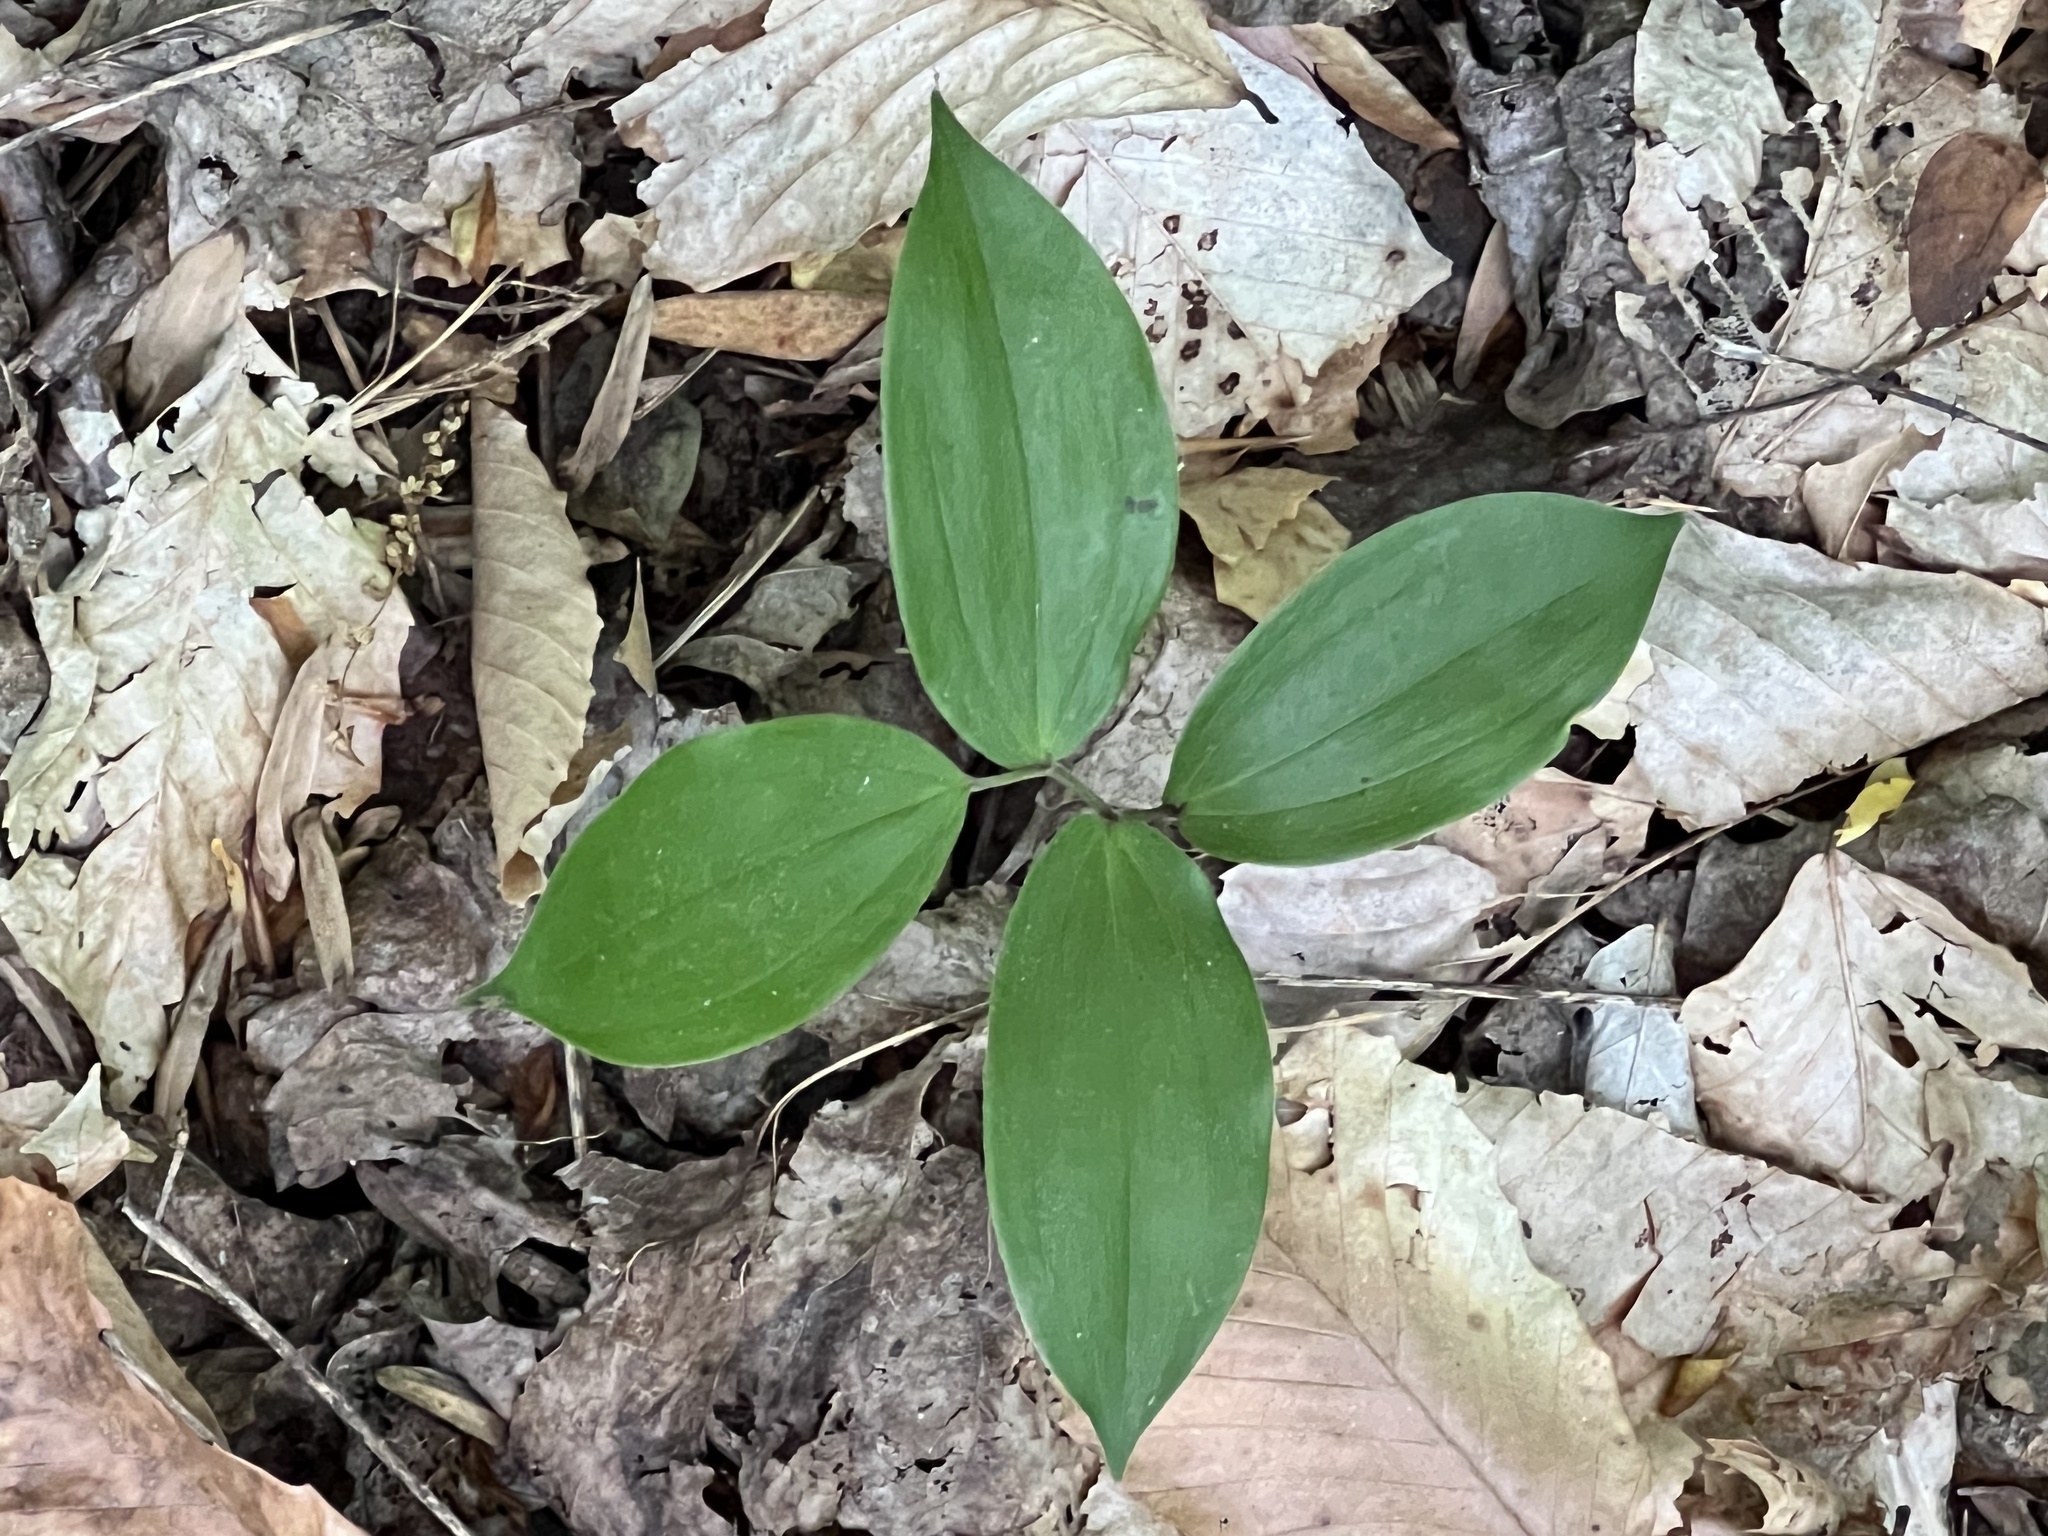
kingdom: Plantae
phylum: Tracheophyta
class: Liliopsida
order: Asparagales
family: Asparagaceae
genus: Maianthemum
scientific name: Maianthemum racemosum
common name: False spikenard
